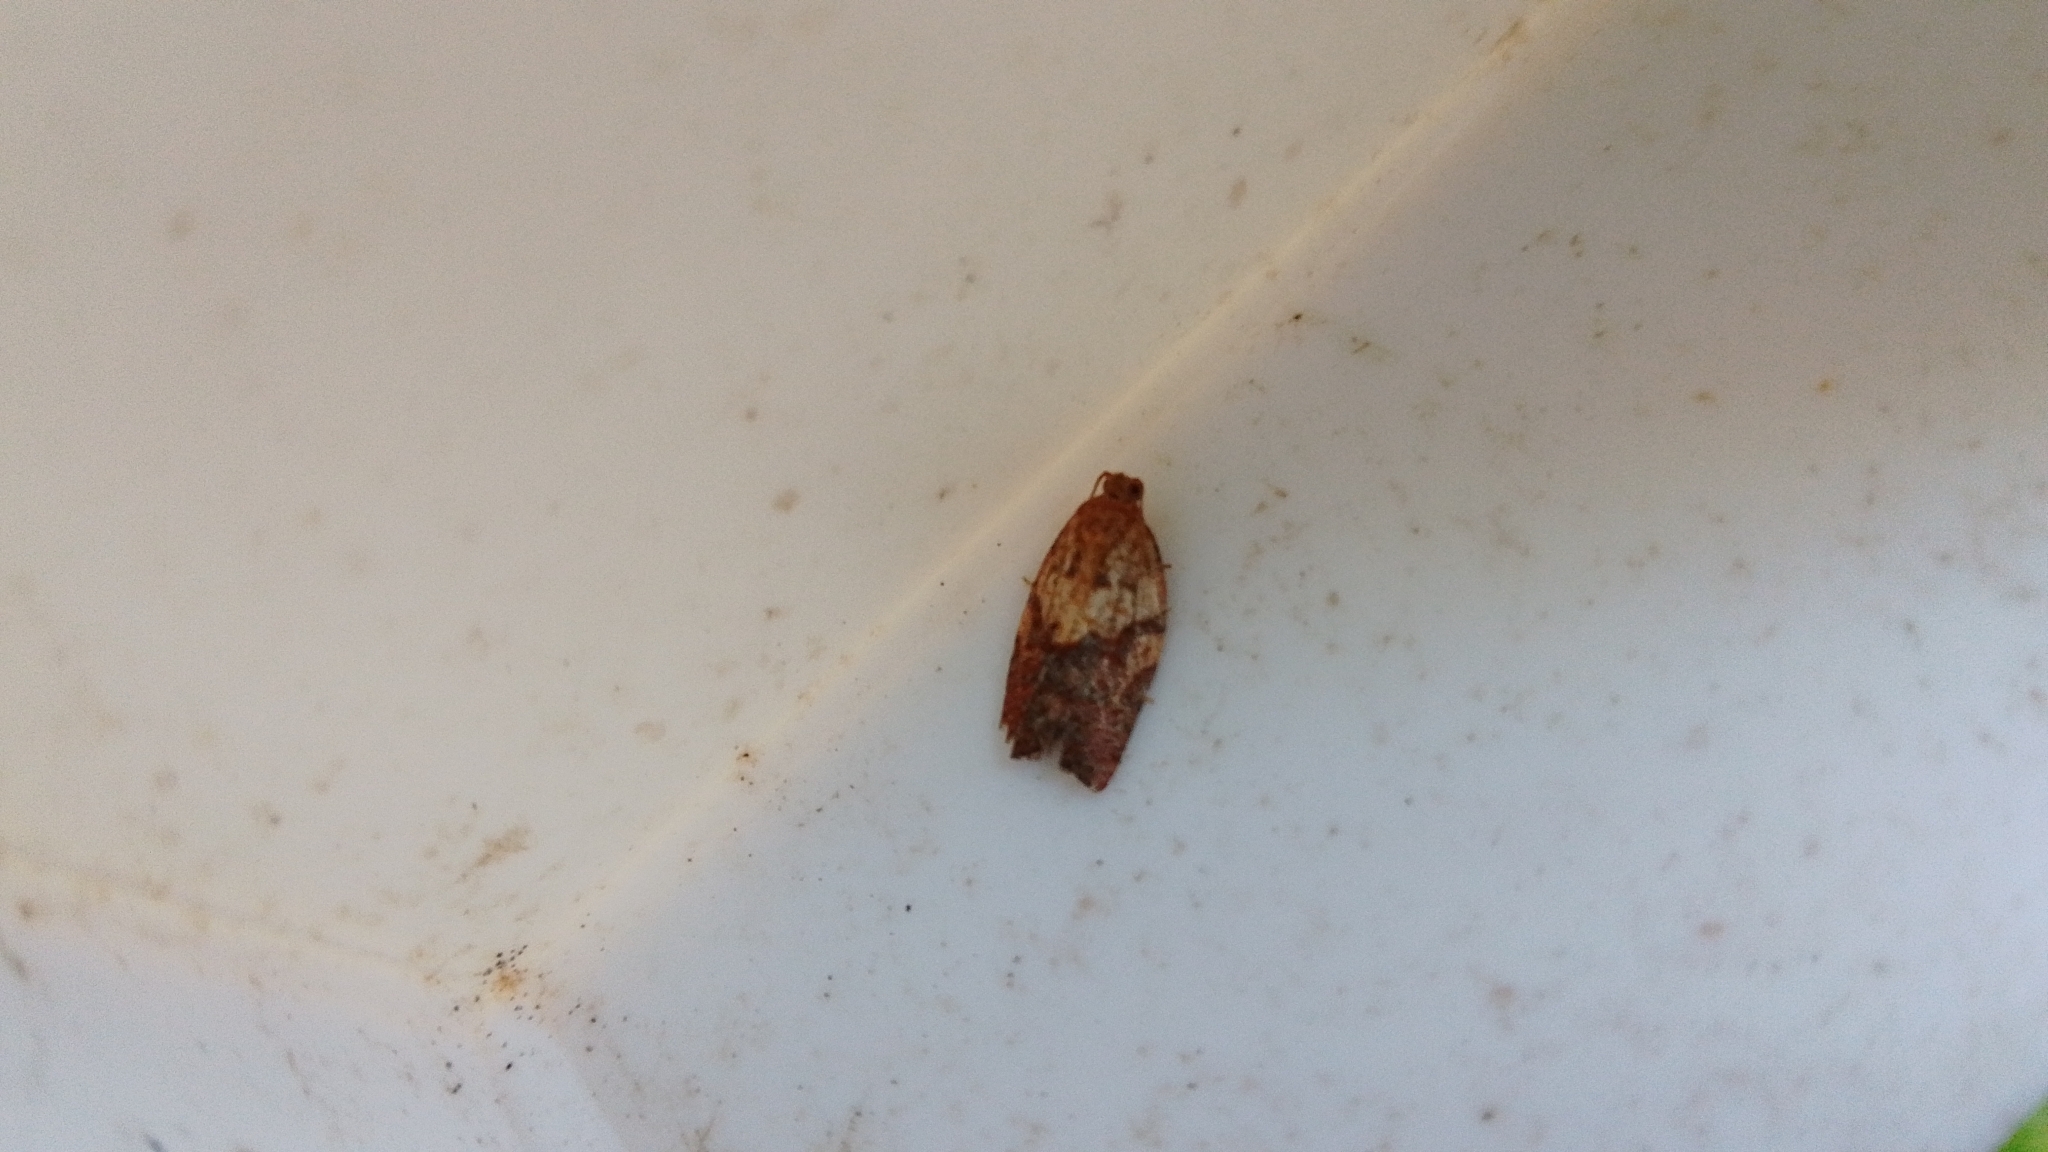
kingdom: Animalia
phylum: Arthropoda
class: Insecta
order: Lepidoptera
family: Tortricidae
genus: Epiphyas
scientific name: Epiphyas postvittana
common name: Light brown apple moth
